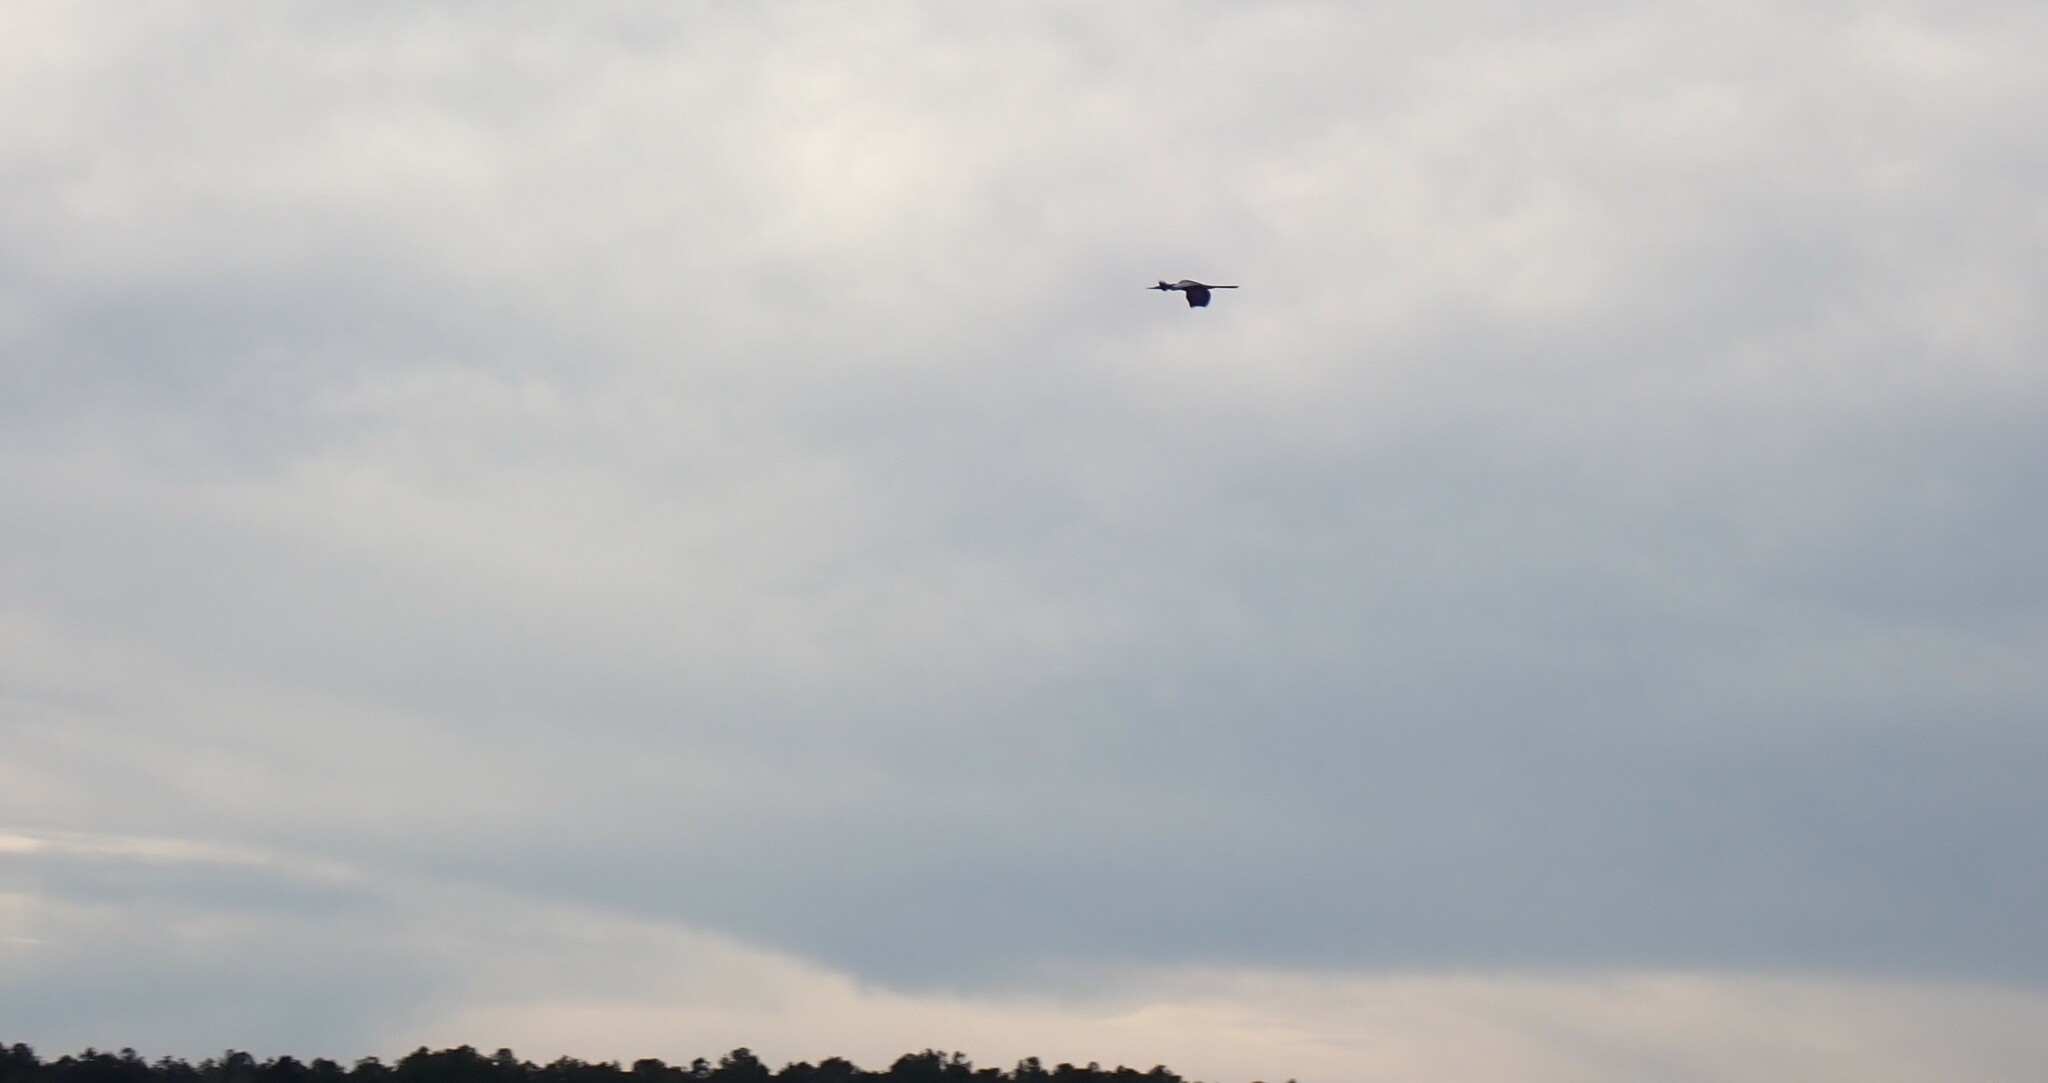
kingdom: Animalia
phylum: Chordata
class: Aves
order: Suliformes
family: Anhingidae
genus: Anhinga
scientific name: Anhinga anhinga
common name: Anhinga
